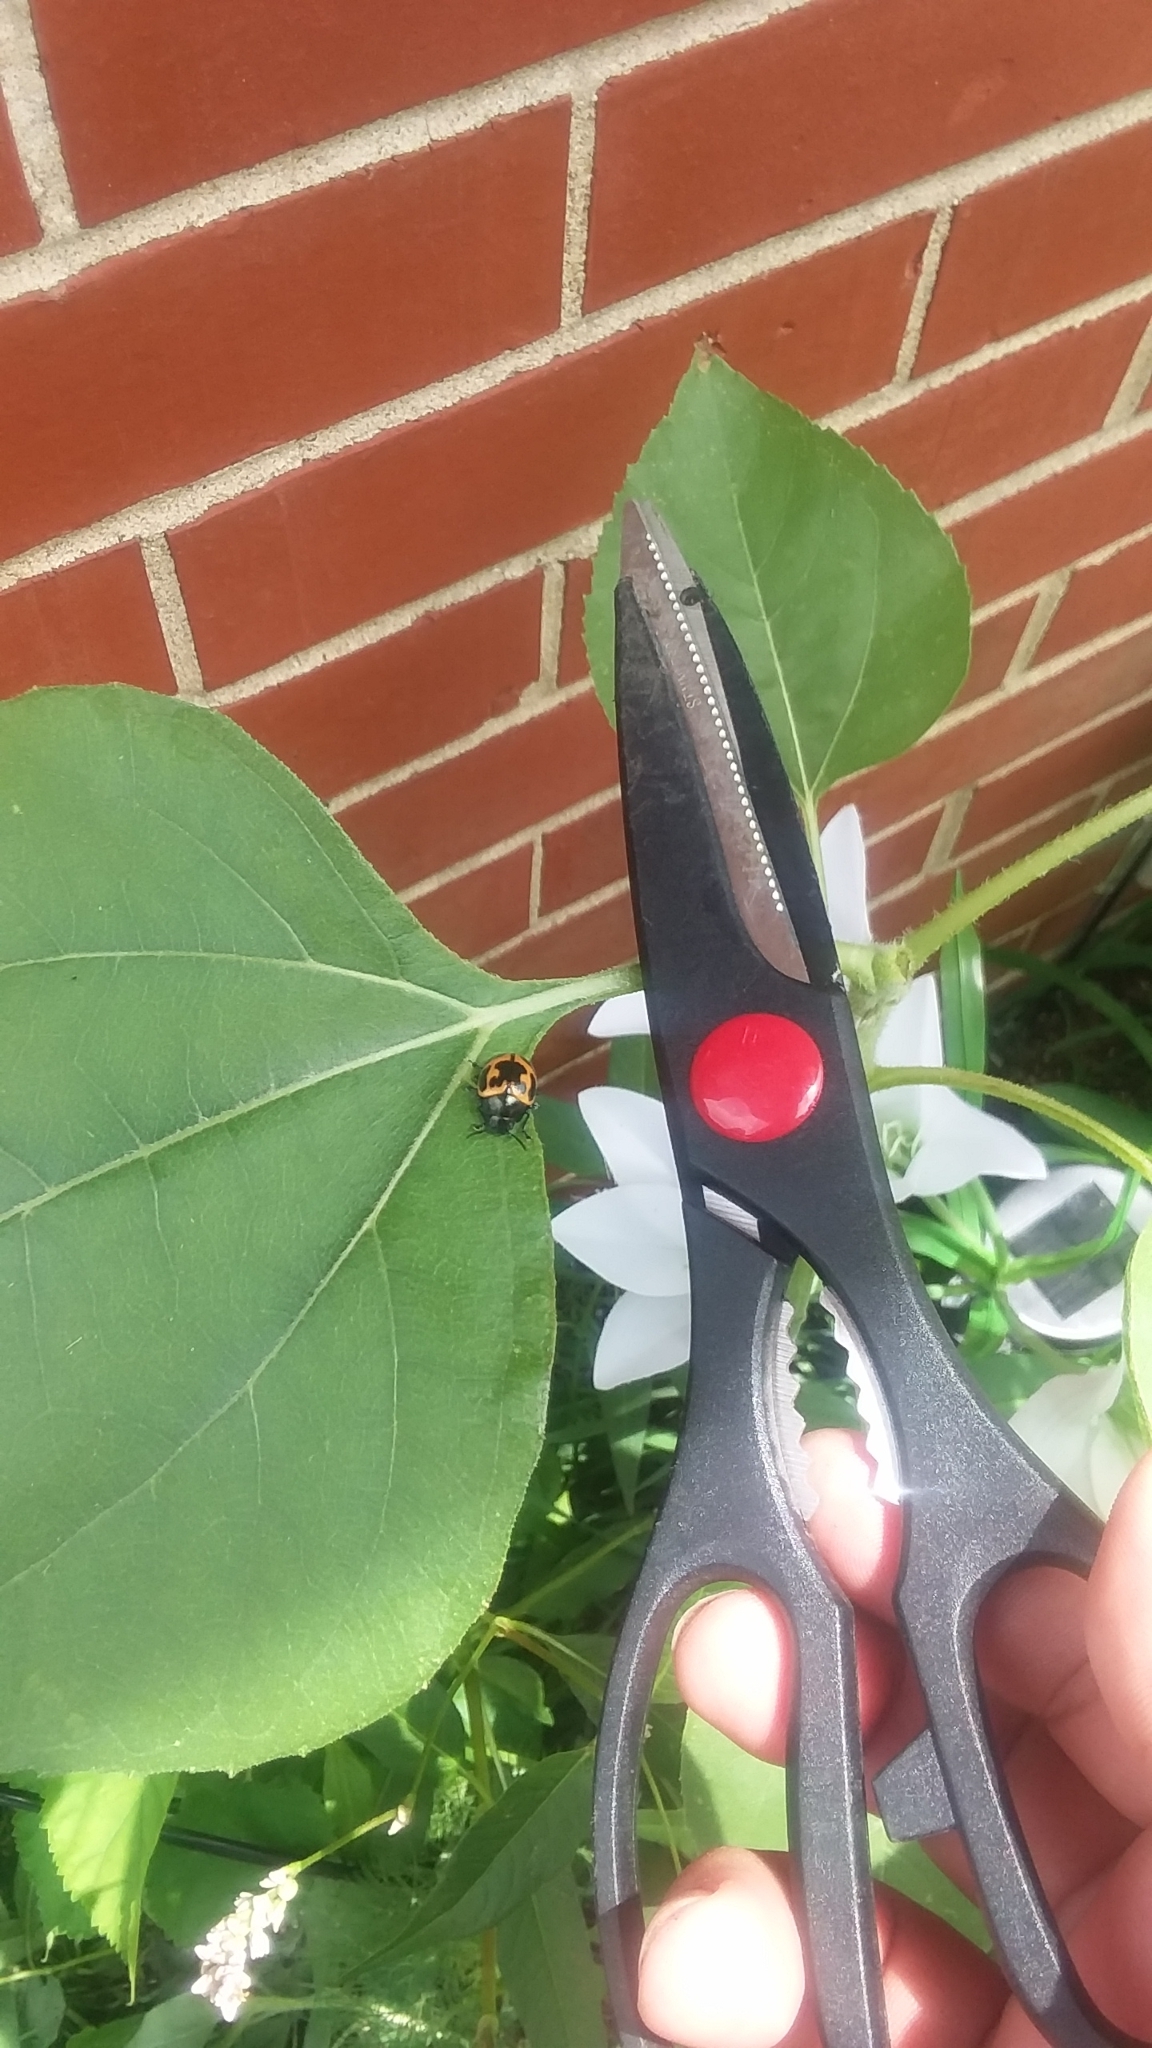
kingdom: Animalia
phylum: Arthropoda
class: Insecta
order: Coleoptera
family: Chrysomelidae
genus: Labidomera
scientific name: Labidomera clivicollis
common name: Swamp milkweed leaf beetle
